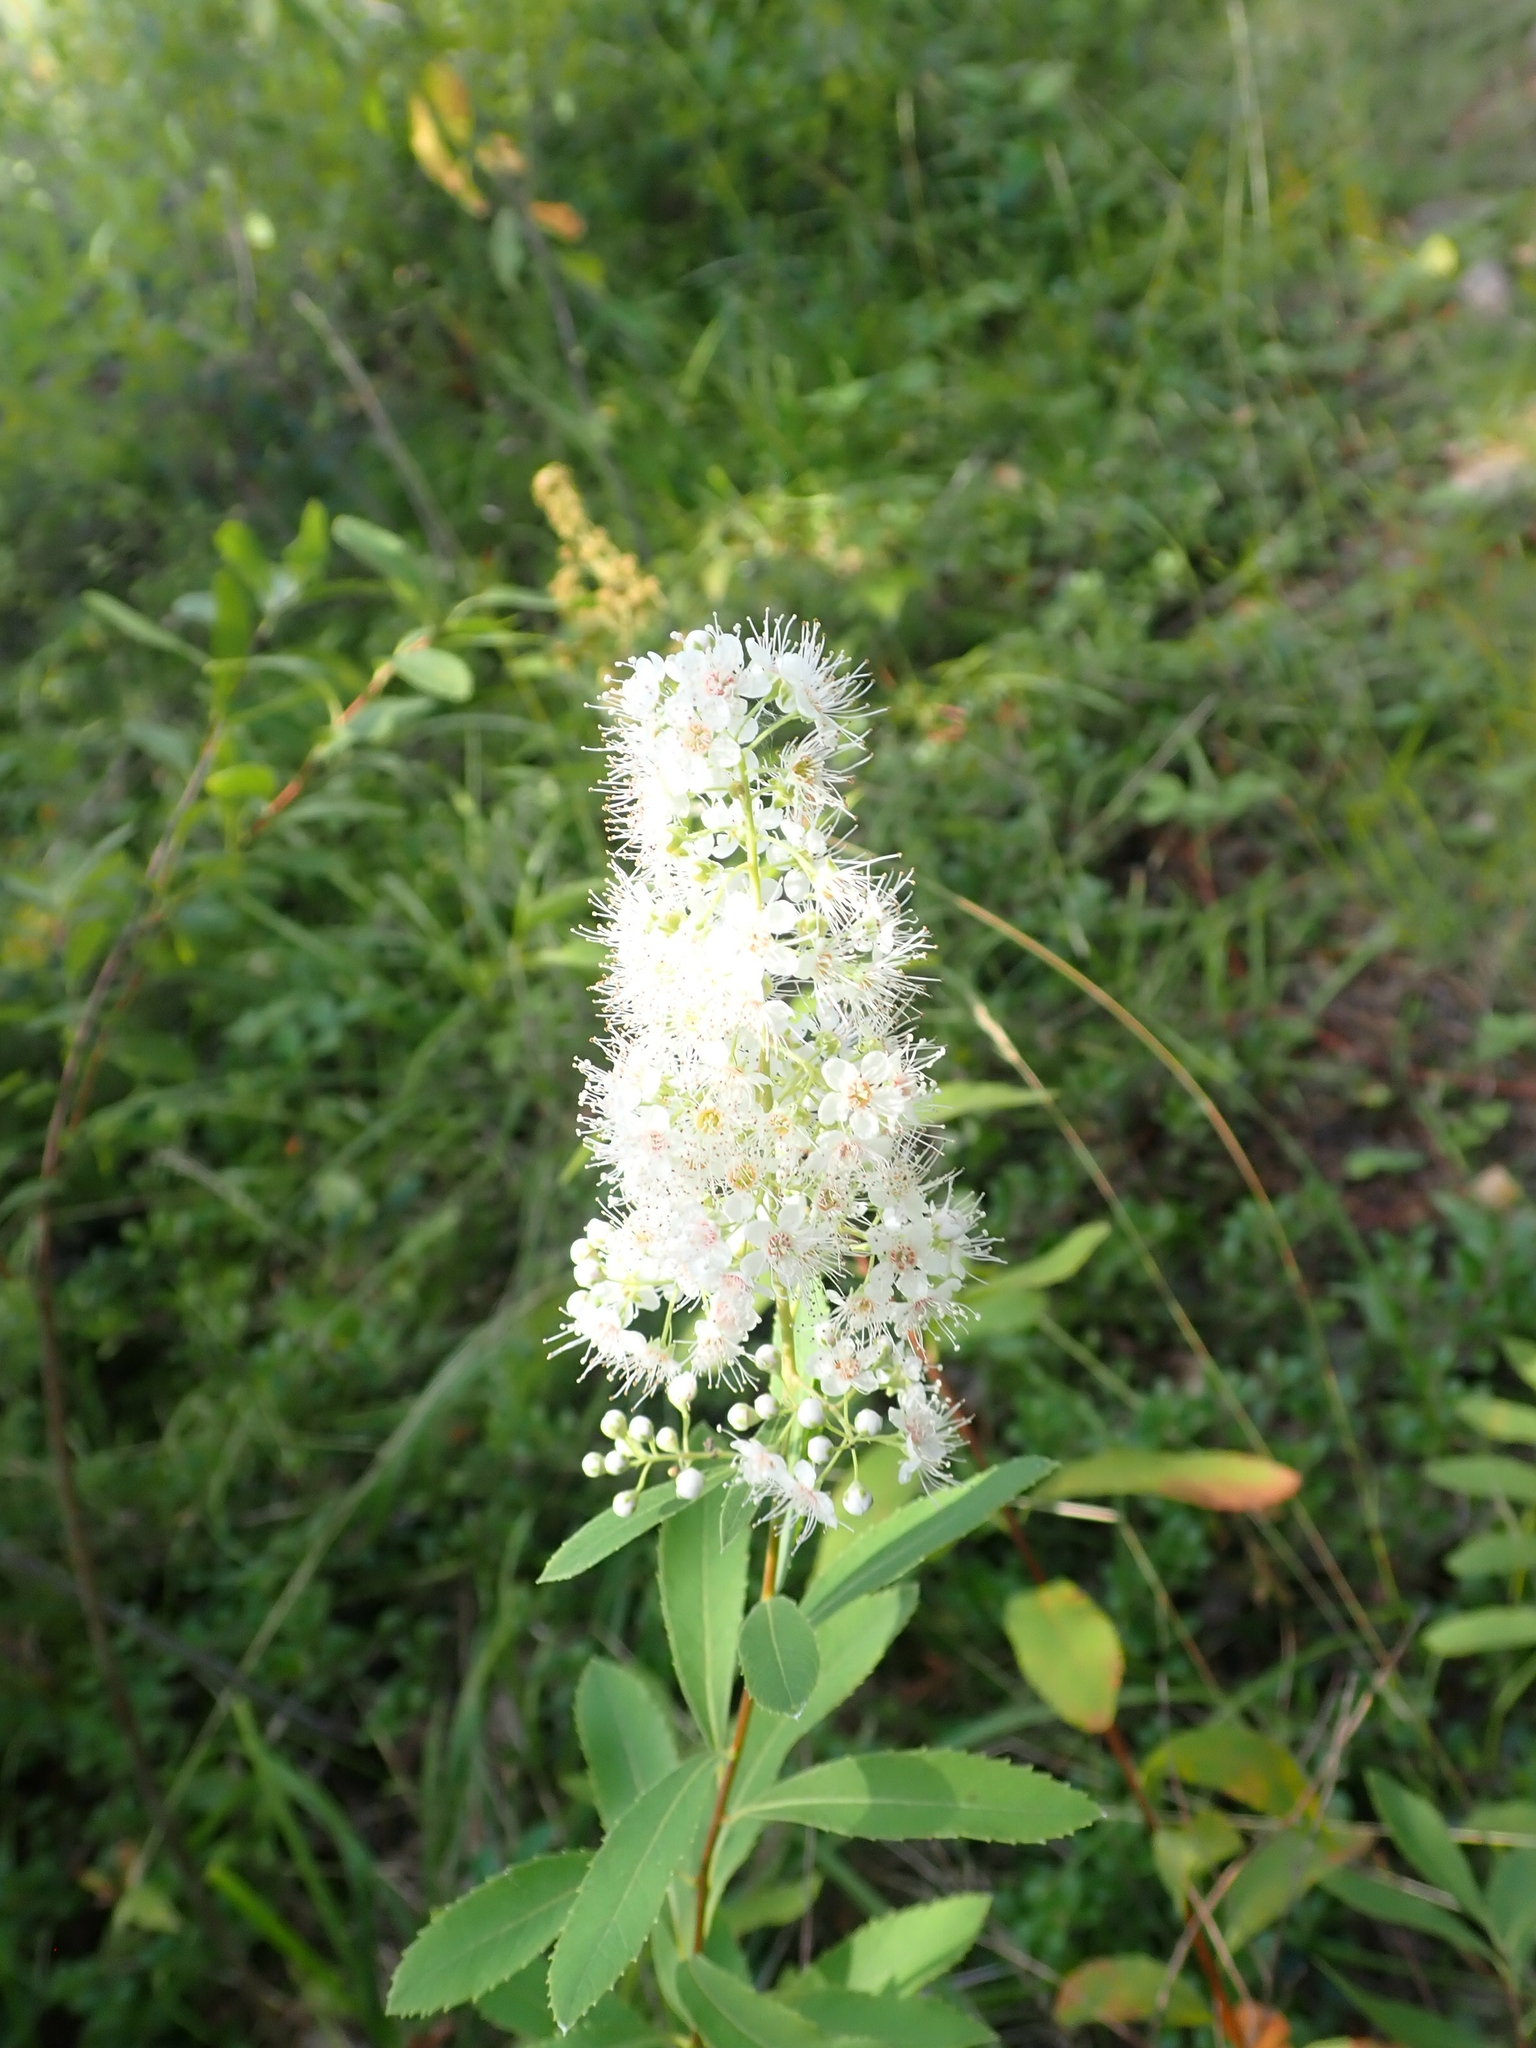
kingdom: Plantae
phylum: Tracheophyta
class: Magnoliopsida
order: Rosales
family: Rosaceae
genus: Spiraea
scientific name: Spiraea alba
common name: Pale bridewort
